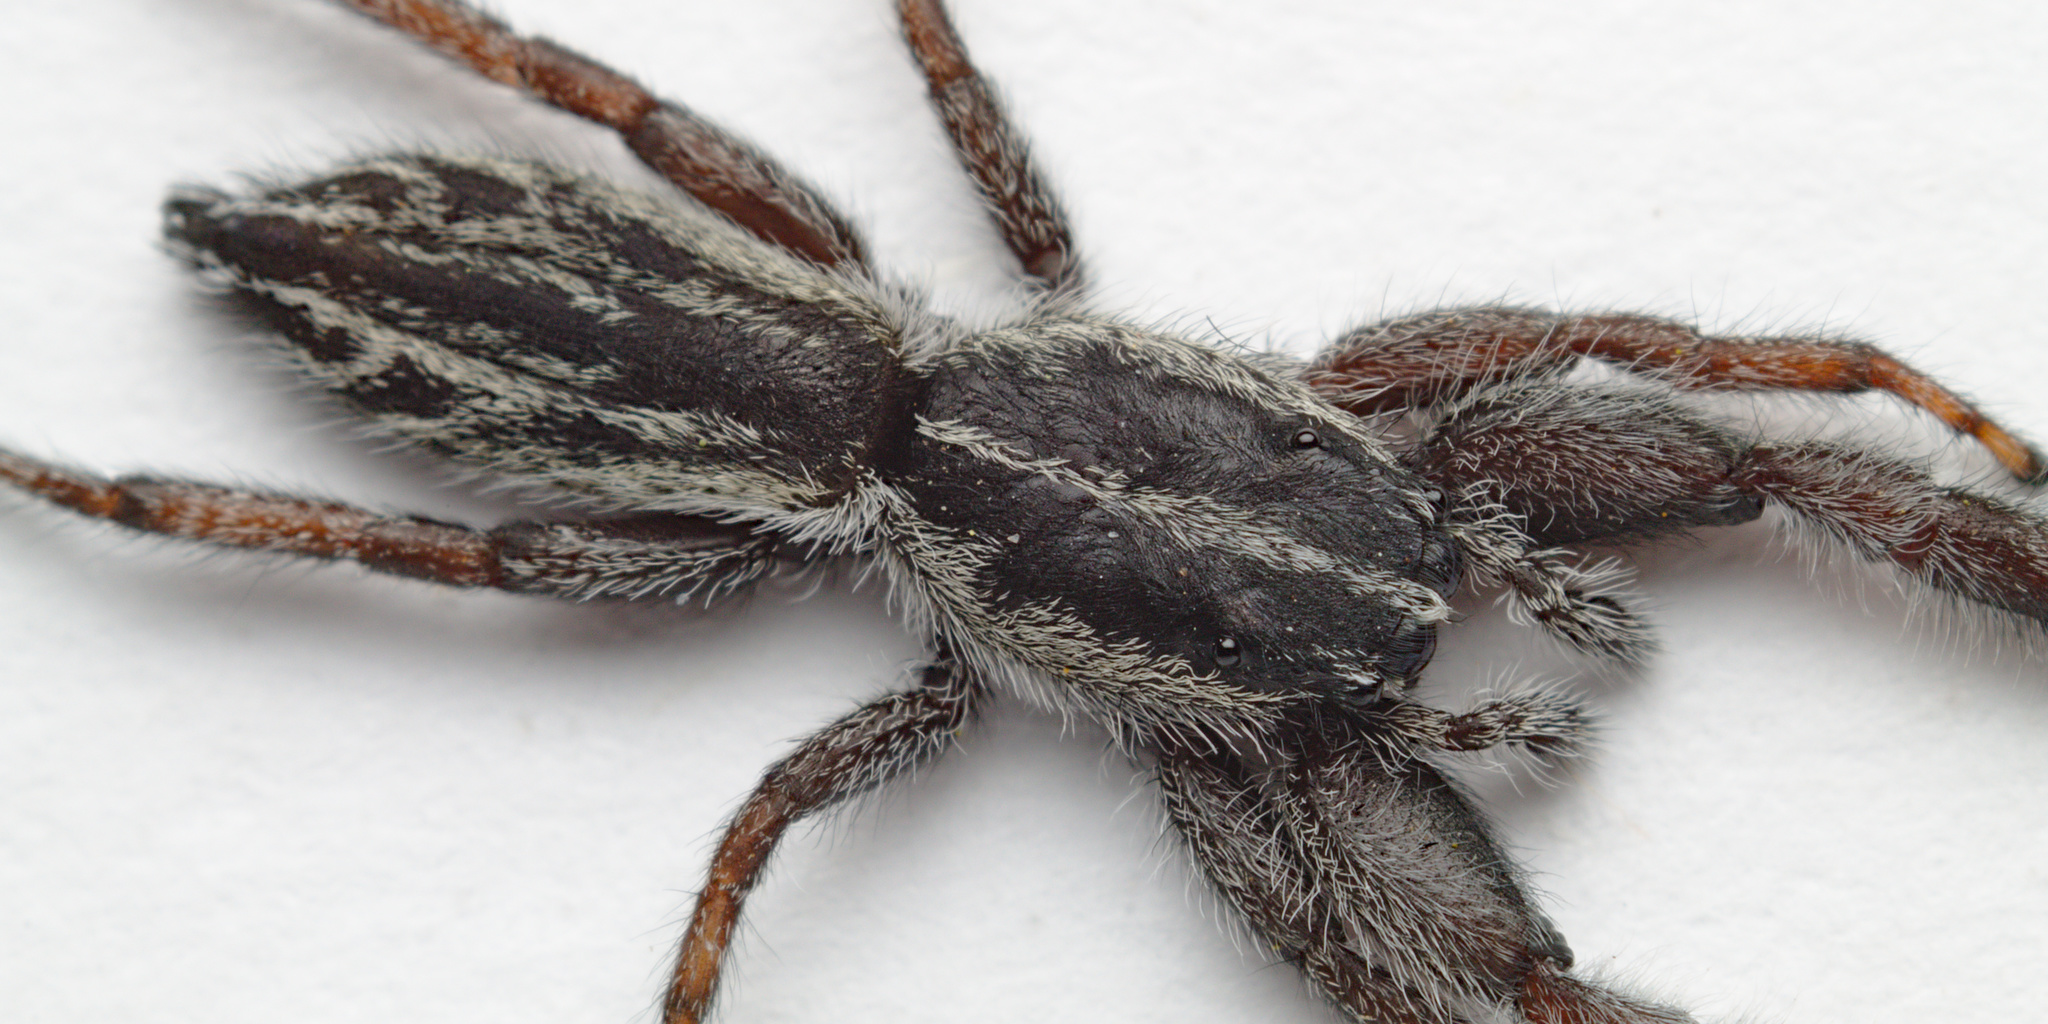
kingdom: Animalia
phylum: Arthropoda
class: Arachnida
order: Araneae
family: Salticidae
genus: Holoplatys
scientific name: Holoplatys apressus
